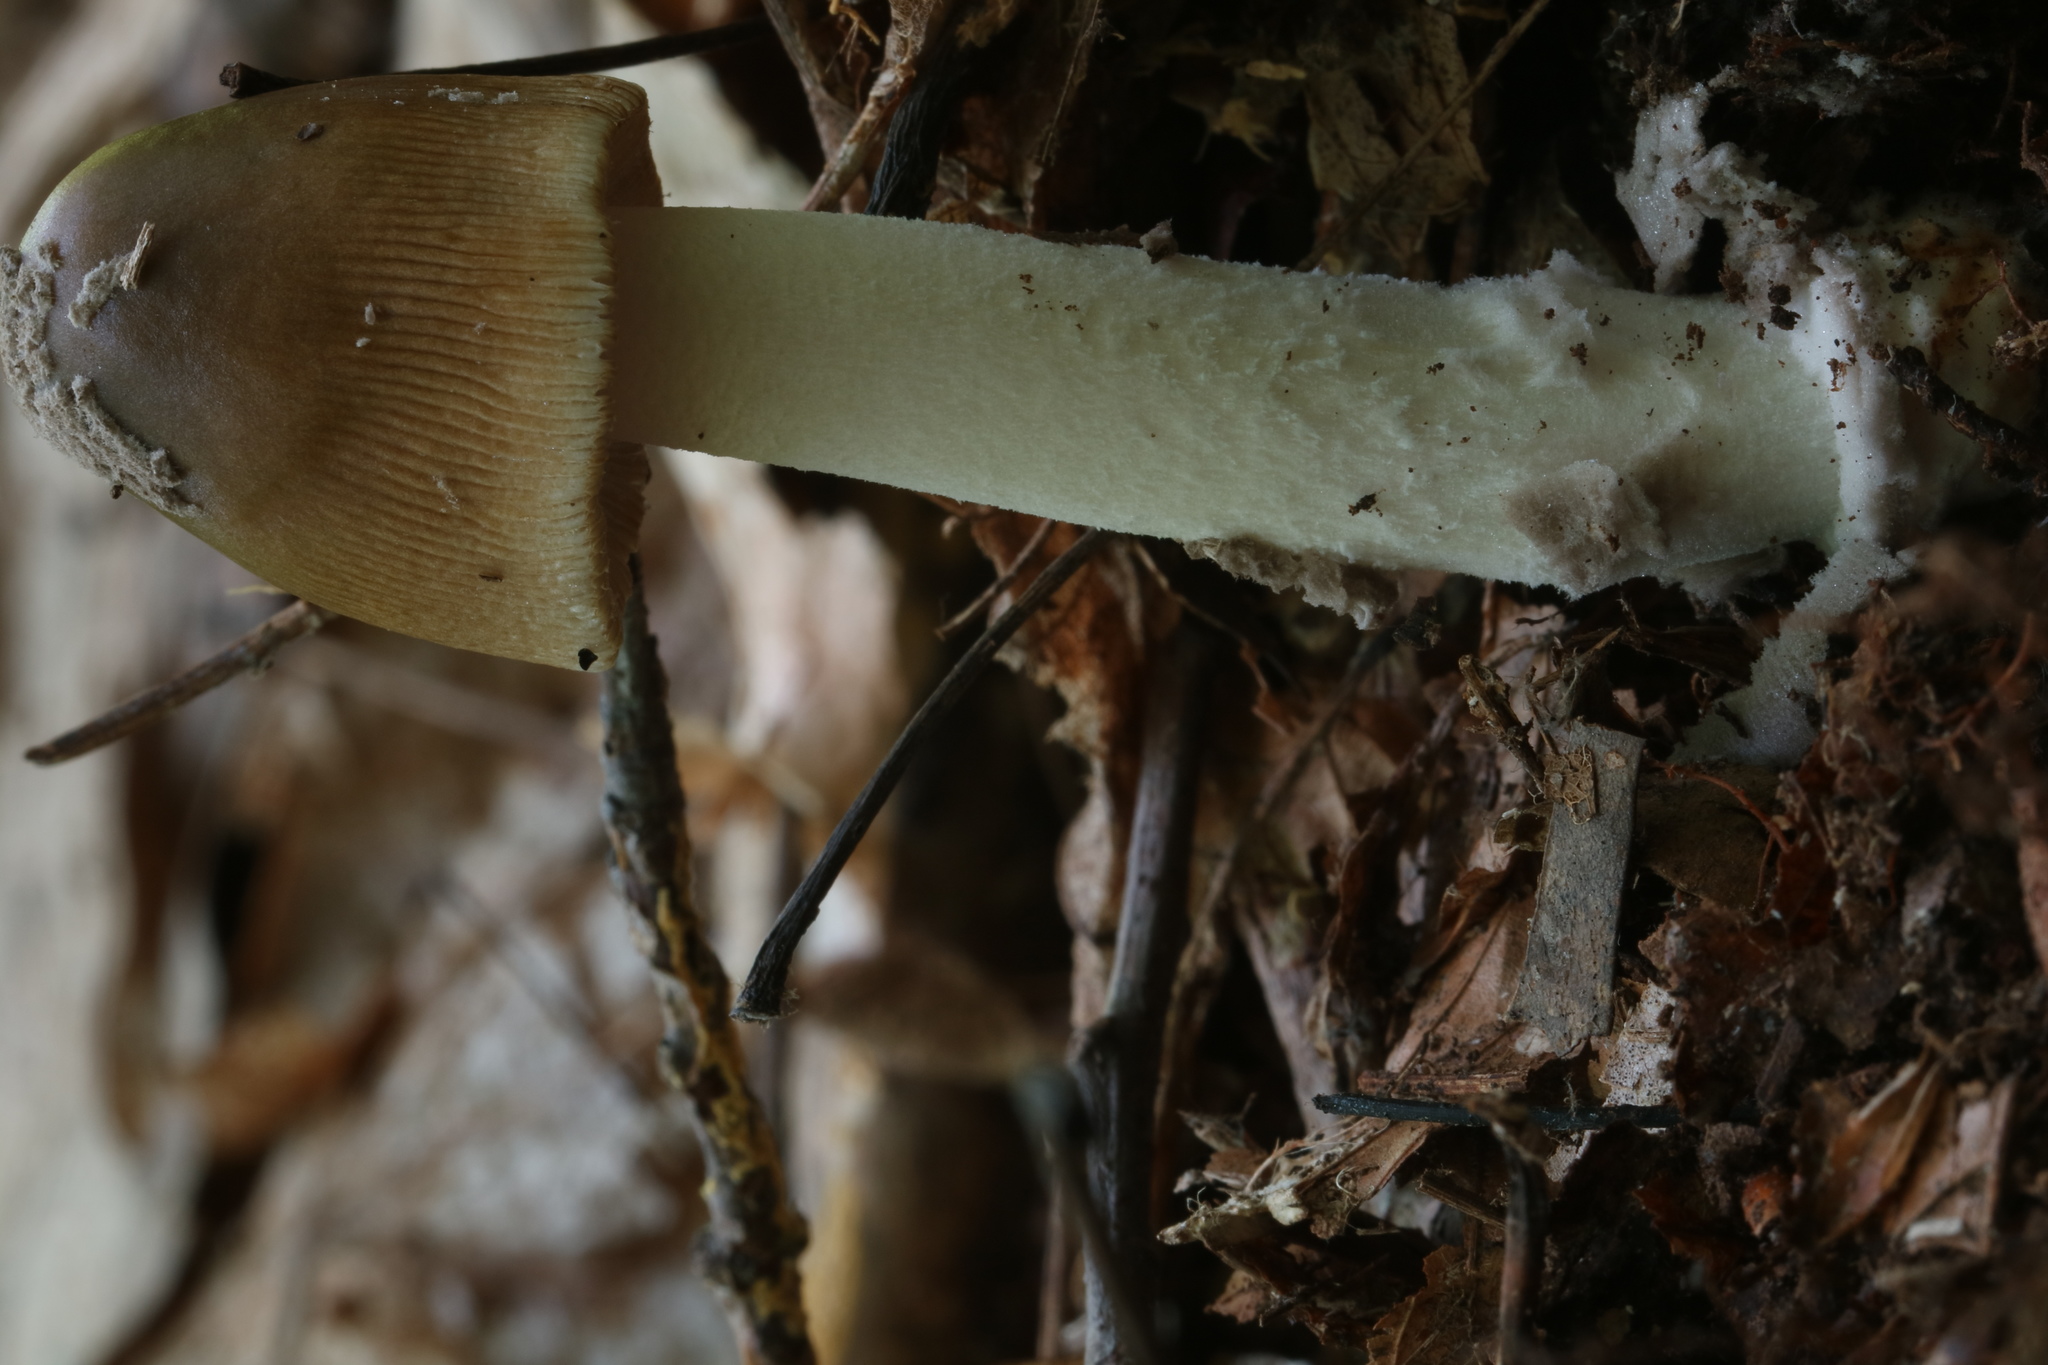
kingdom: Fungi
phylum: Basidiomycota
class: Agaricomycetes
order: Agaricales
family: Amanitaceae
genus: Amanita
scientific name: Amanita variicolor
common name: Piebald ringless amanita
